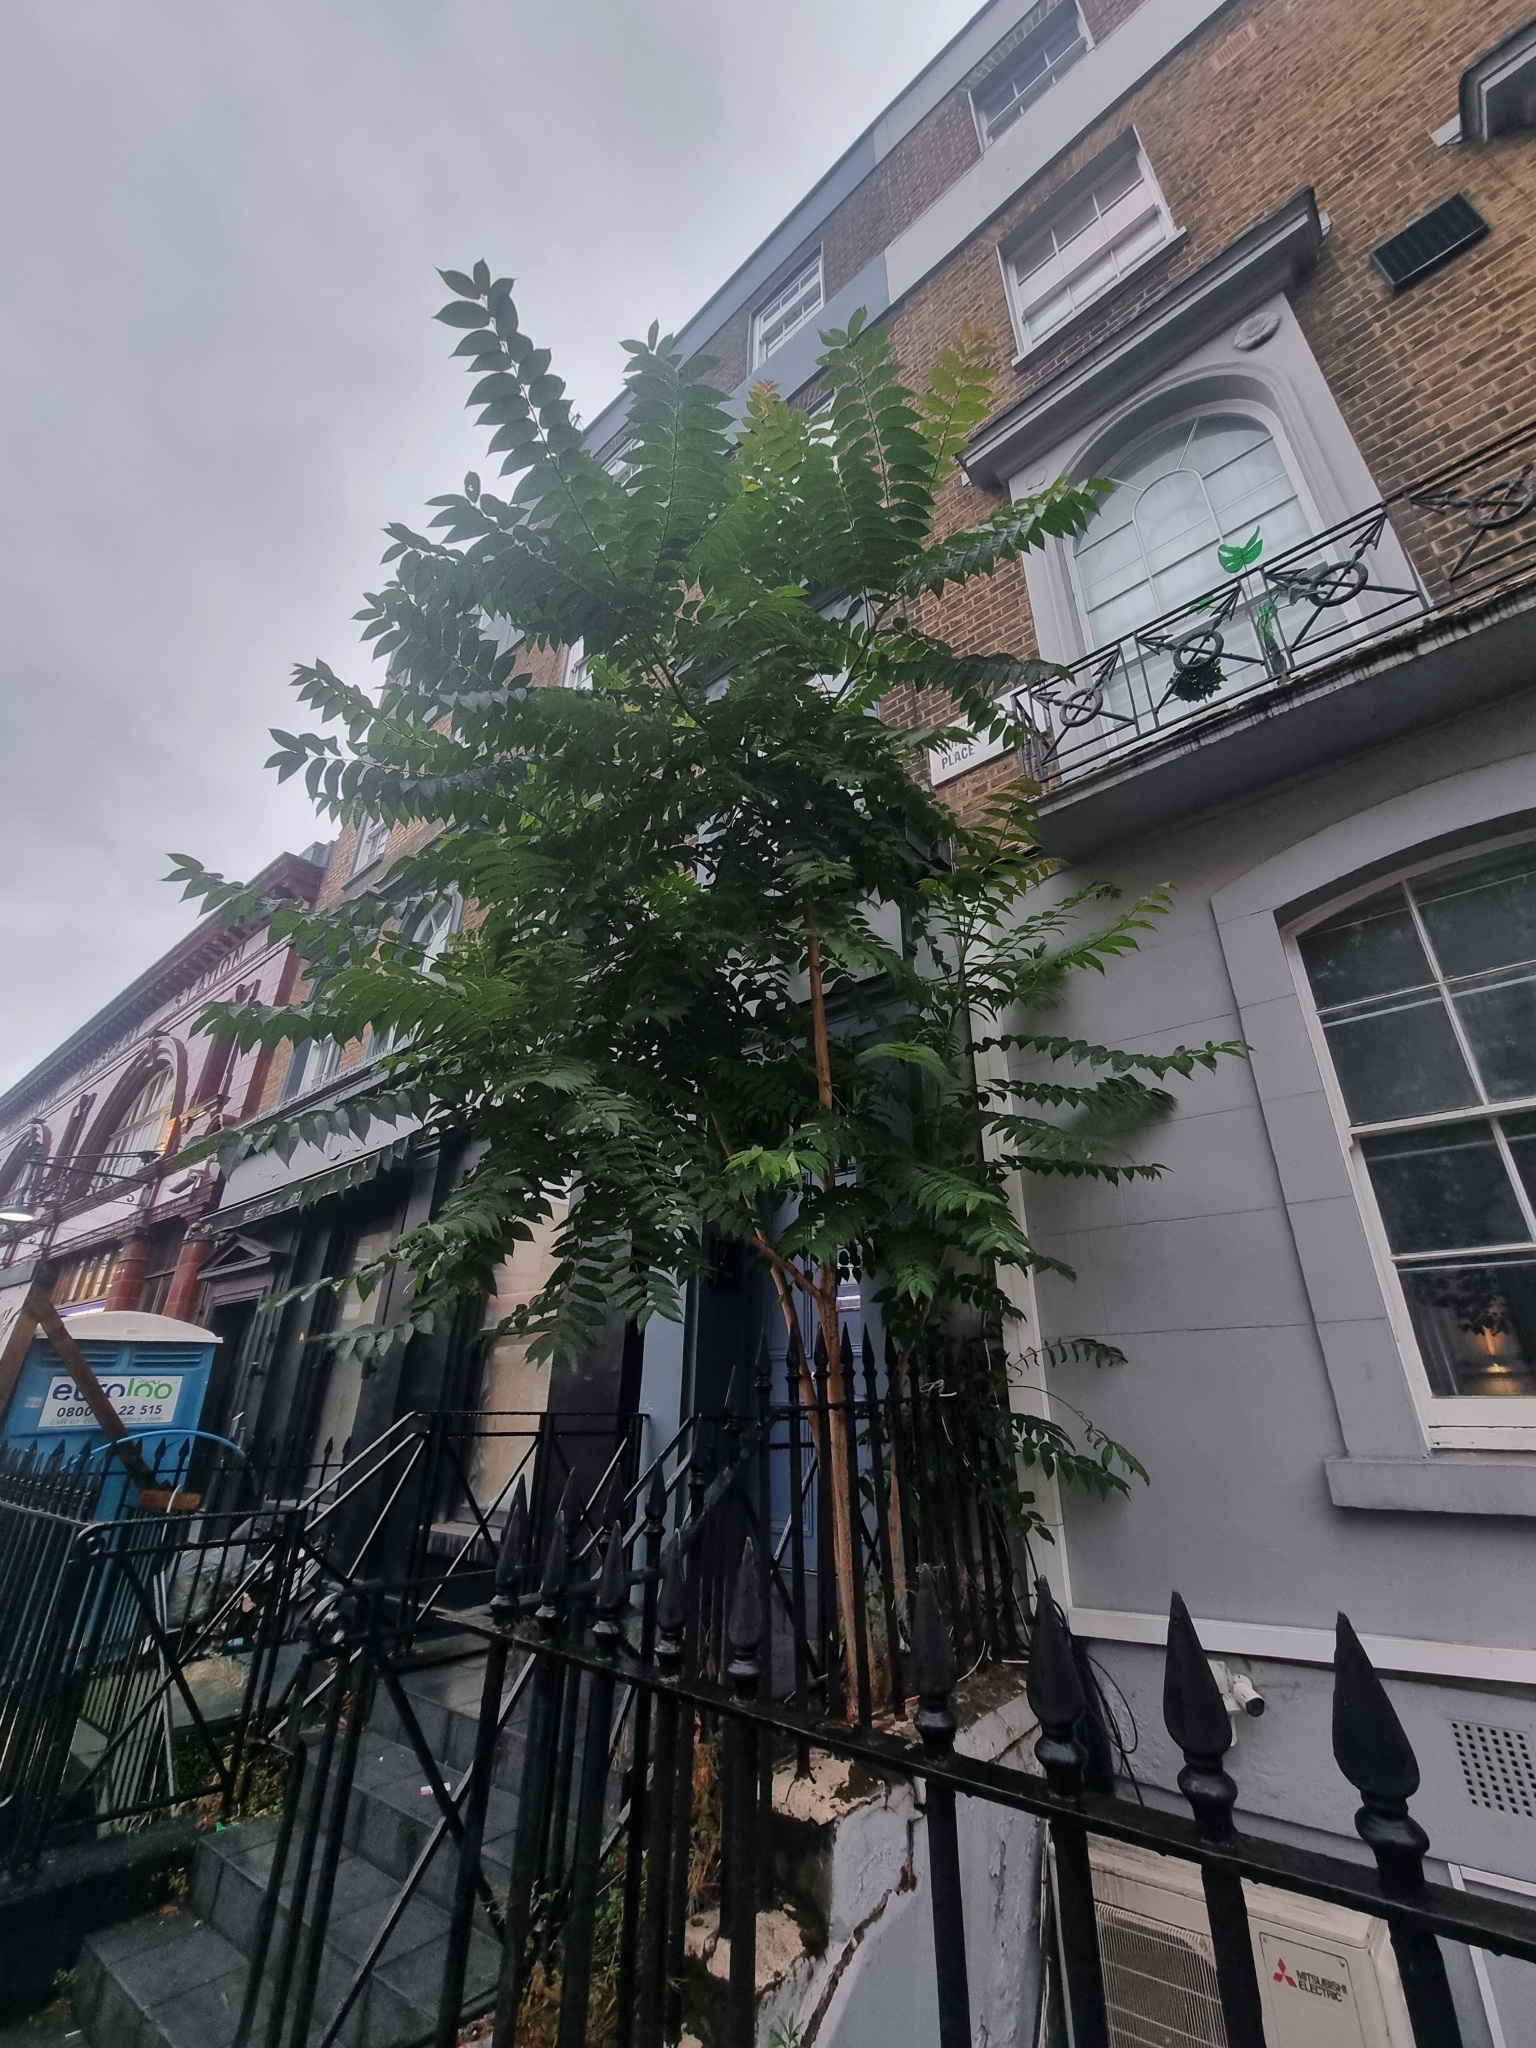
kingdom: Plantae
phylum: Tracheophyta
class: Magnoliopsida
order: Sapindales
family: Simaroubaceae
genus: Ailanthus
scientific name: Ailanthus altissima
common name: Tree-of-heaven
